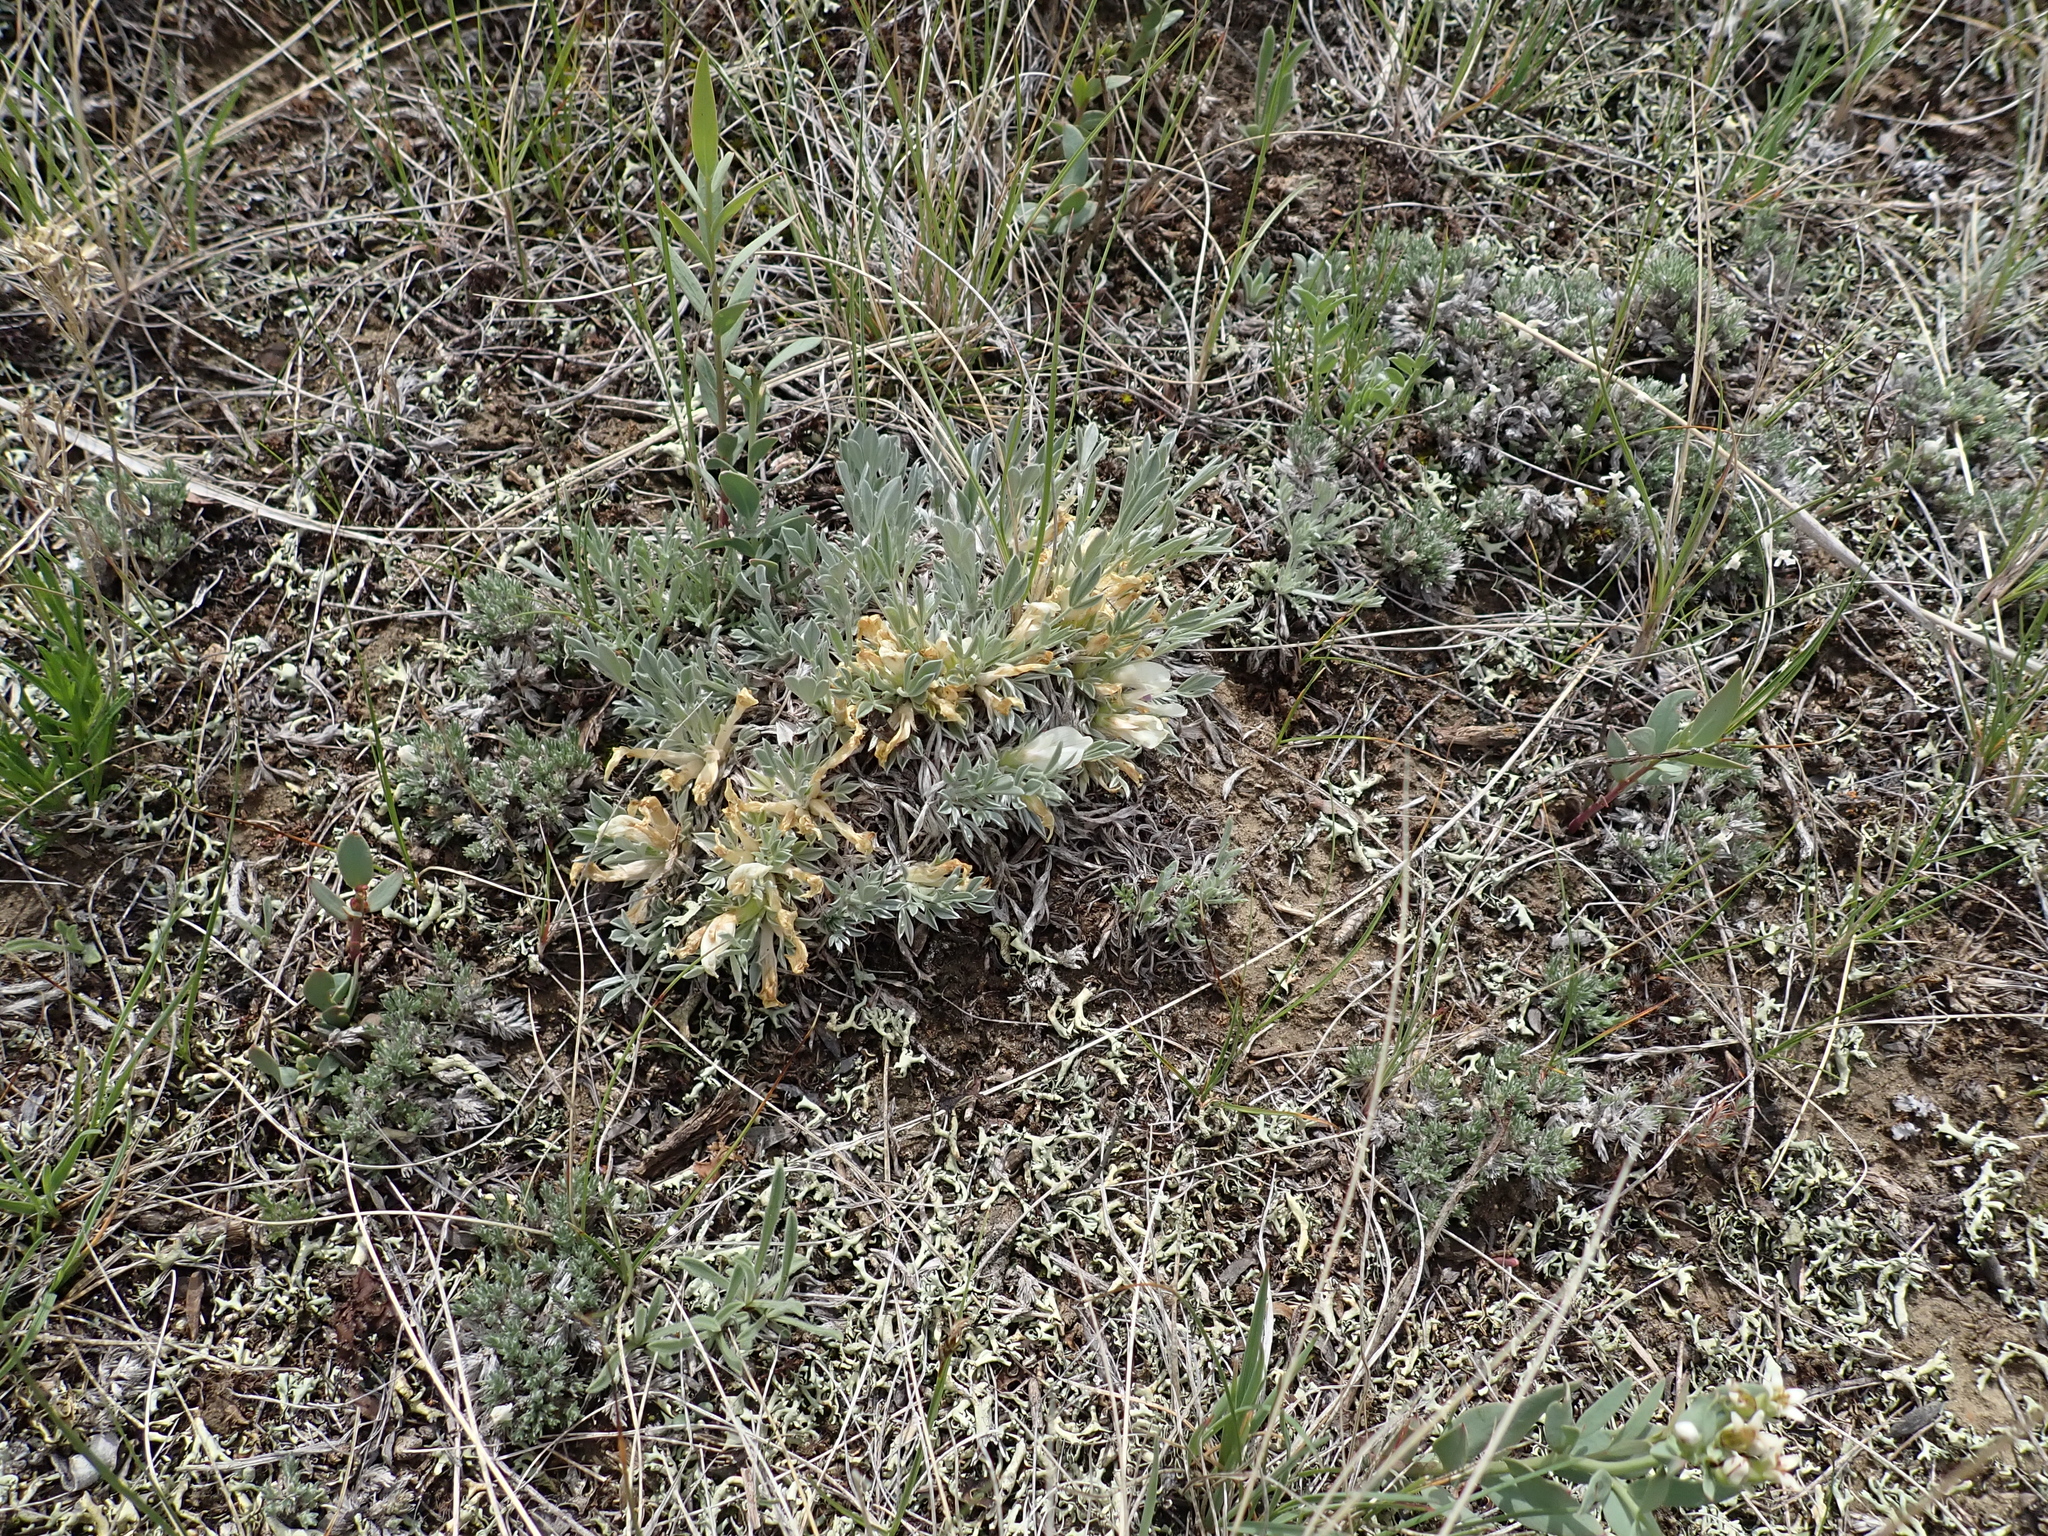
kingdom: Plantae
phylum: Tracheophyta
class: Magnoliopsida
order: Fabales
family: Fabaceae
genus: Astragalus
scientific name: Astragalus gilviflorus
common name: Cushion milk-vetch
